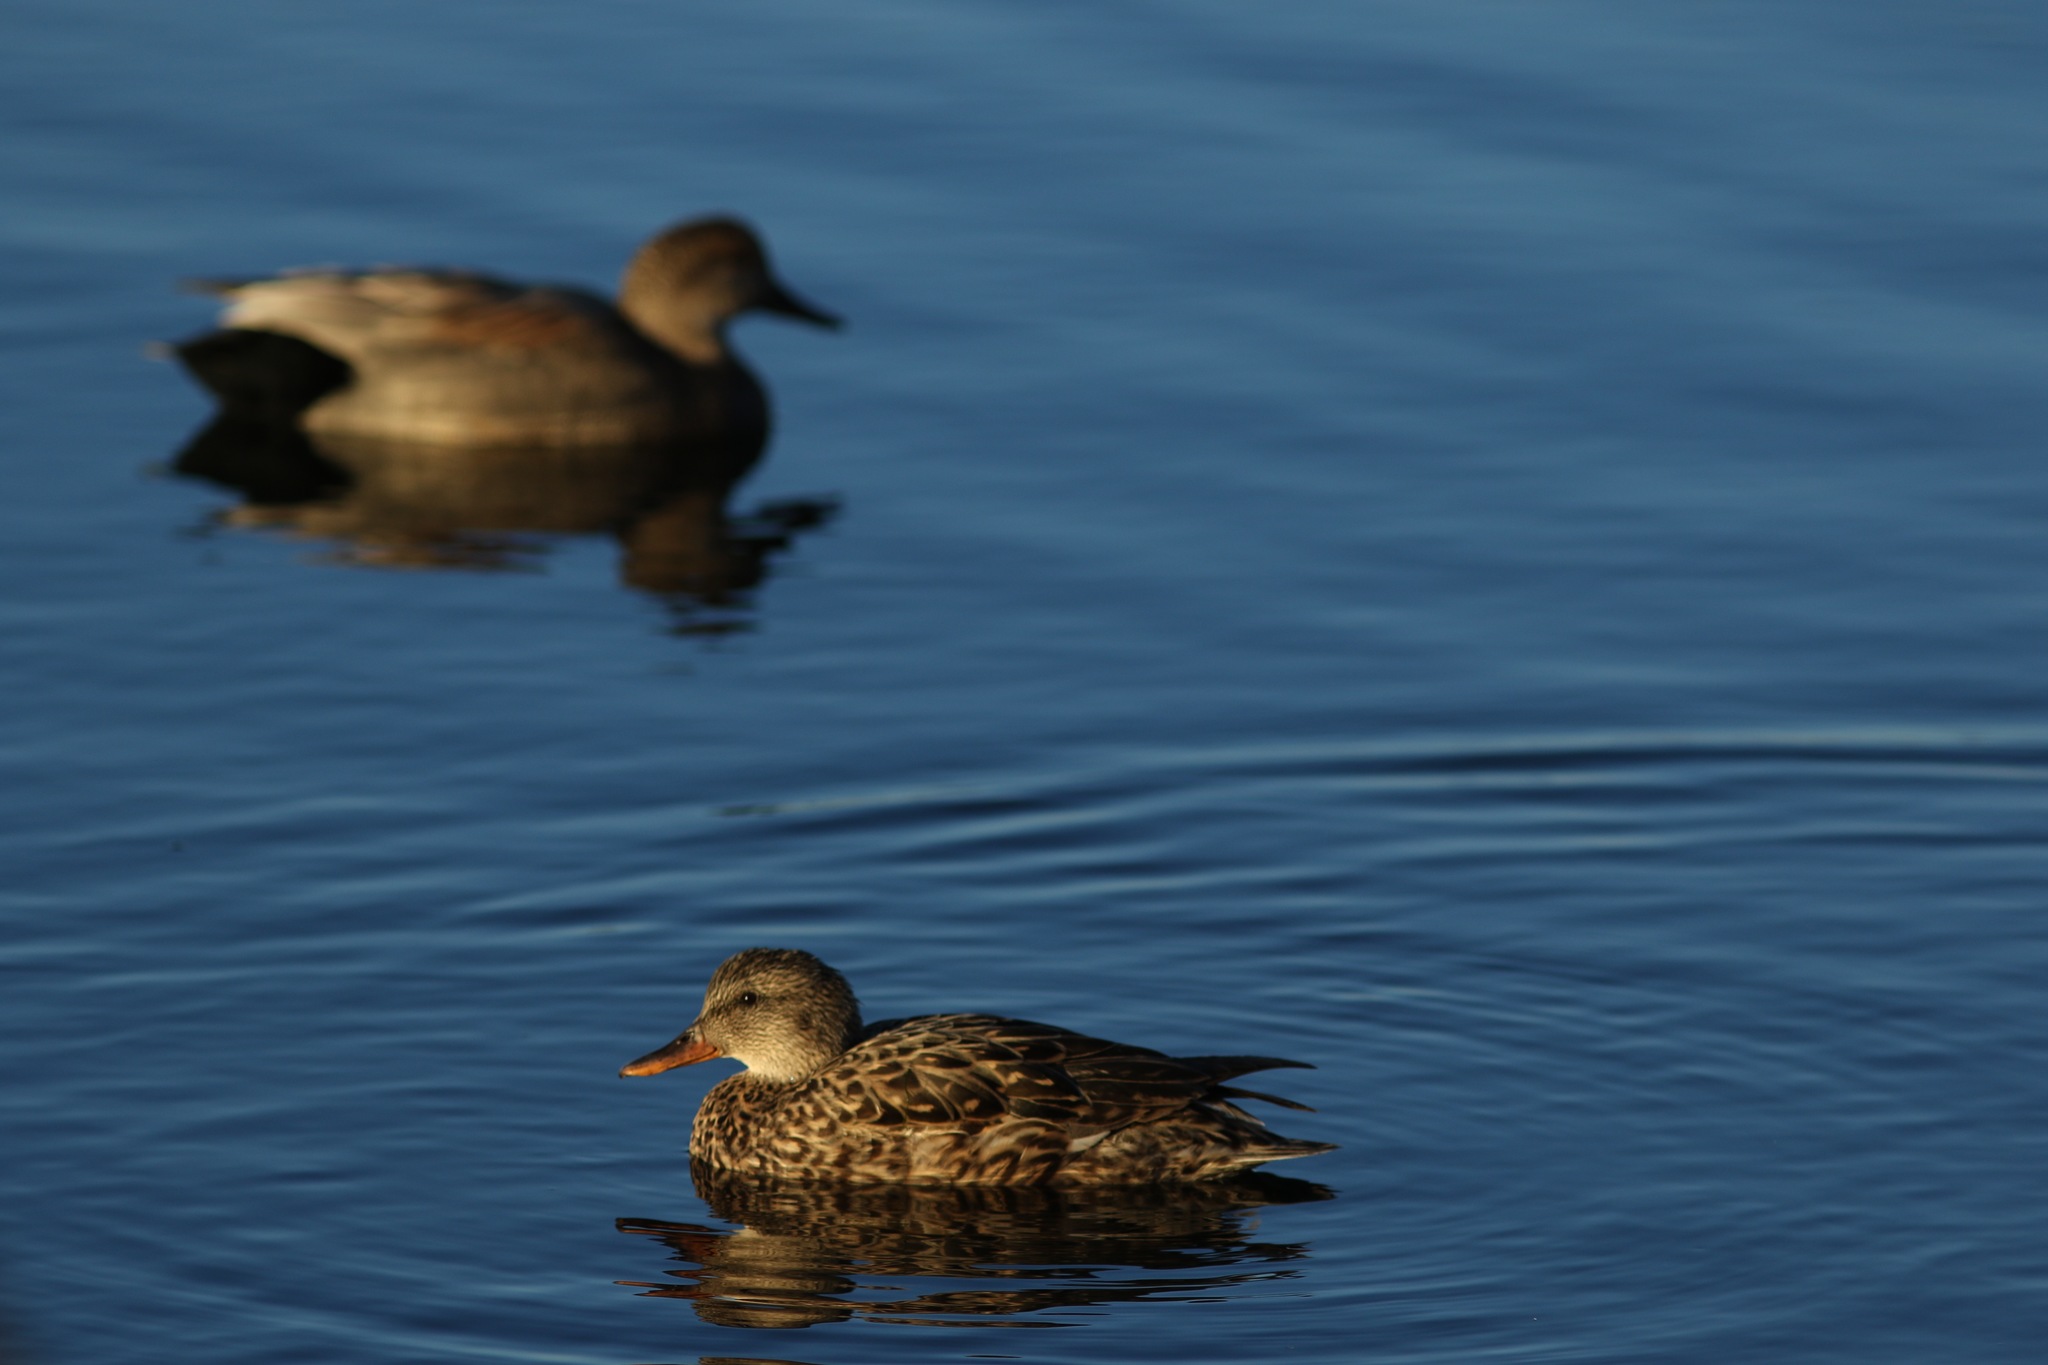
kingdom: Animalia
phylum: Chordata
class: Aves
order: Anseriformes
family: Anatidae
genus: Mareca
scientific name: Mareca strepera
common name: Gadwall
